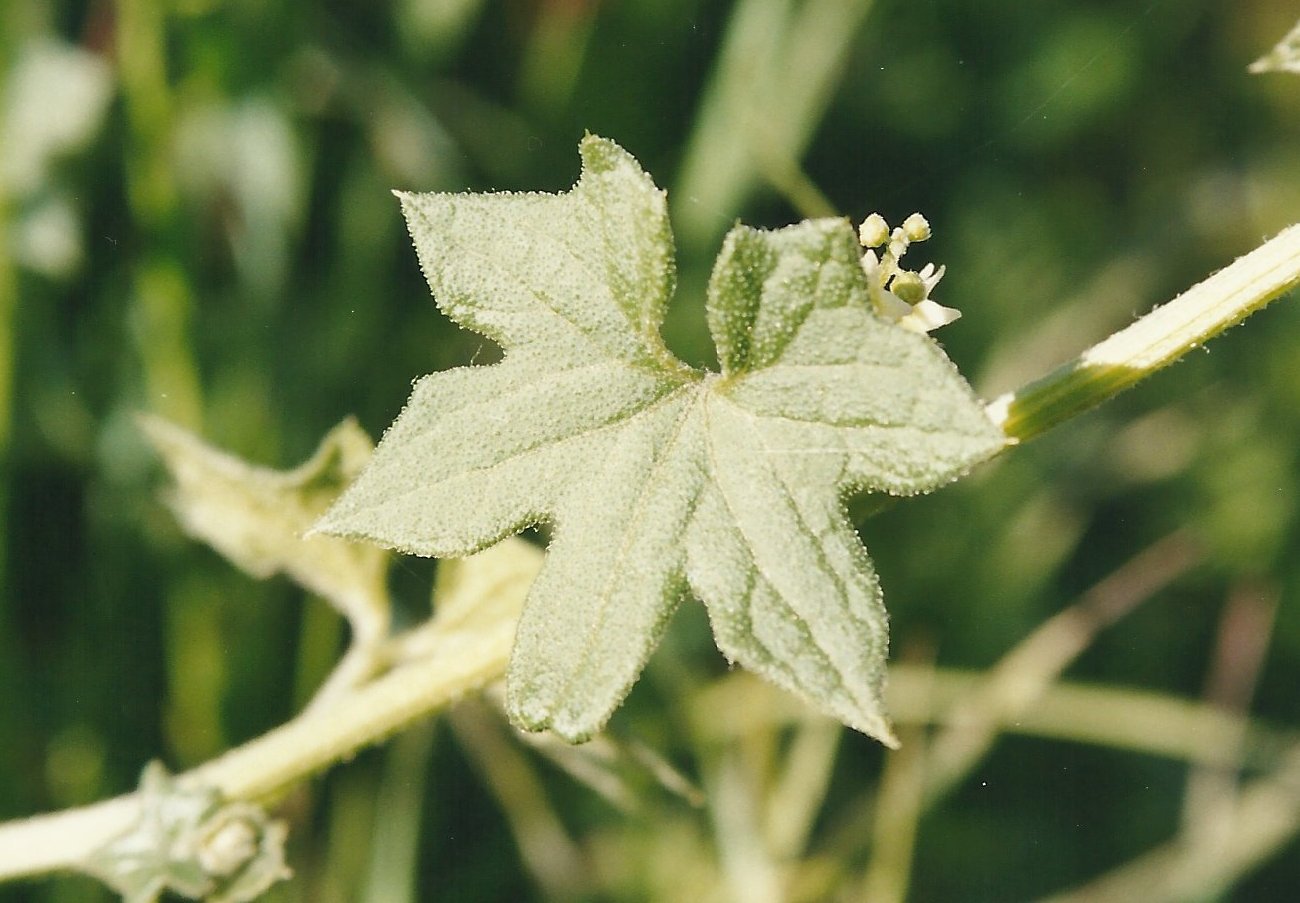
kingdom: Plantae
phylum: Tracheophyta
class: Magnoliopsida
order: Cucurbitales
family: Cucurbitaceae
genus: Marah
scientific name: Marah fabacea
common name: California manroot
